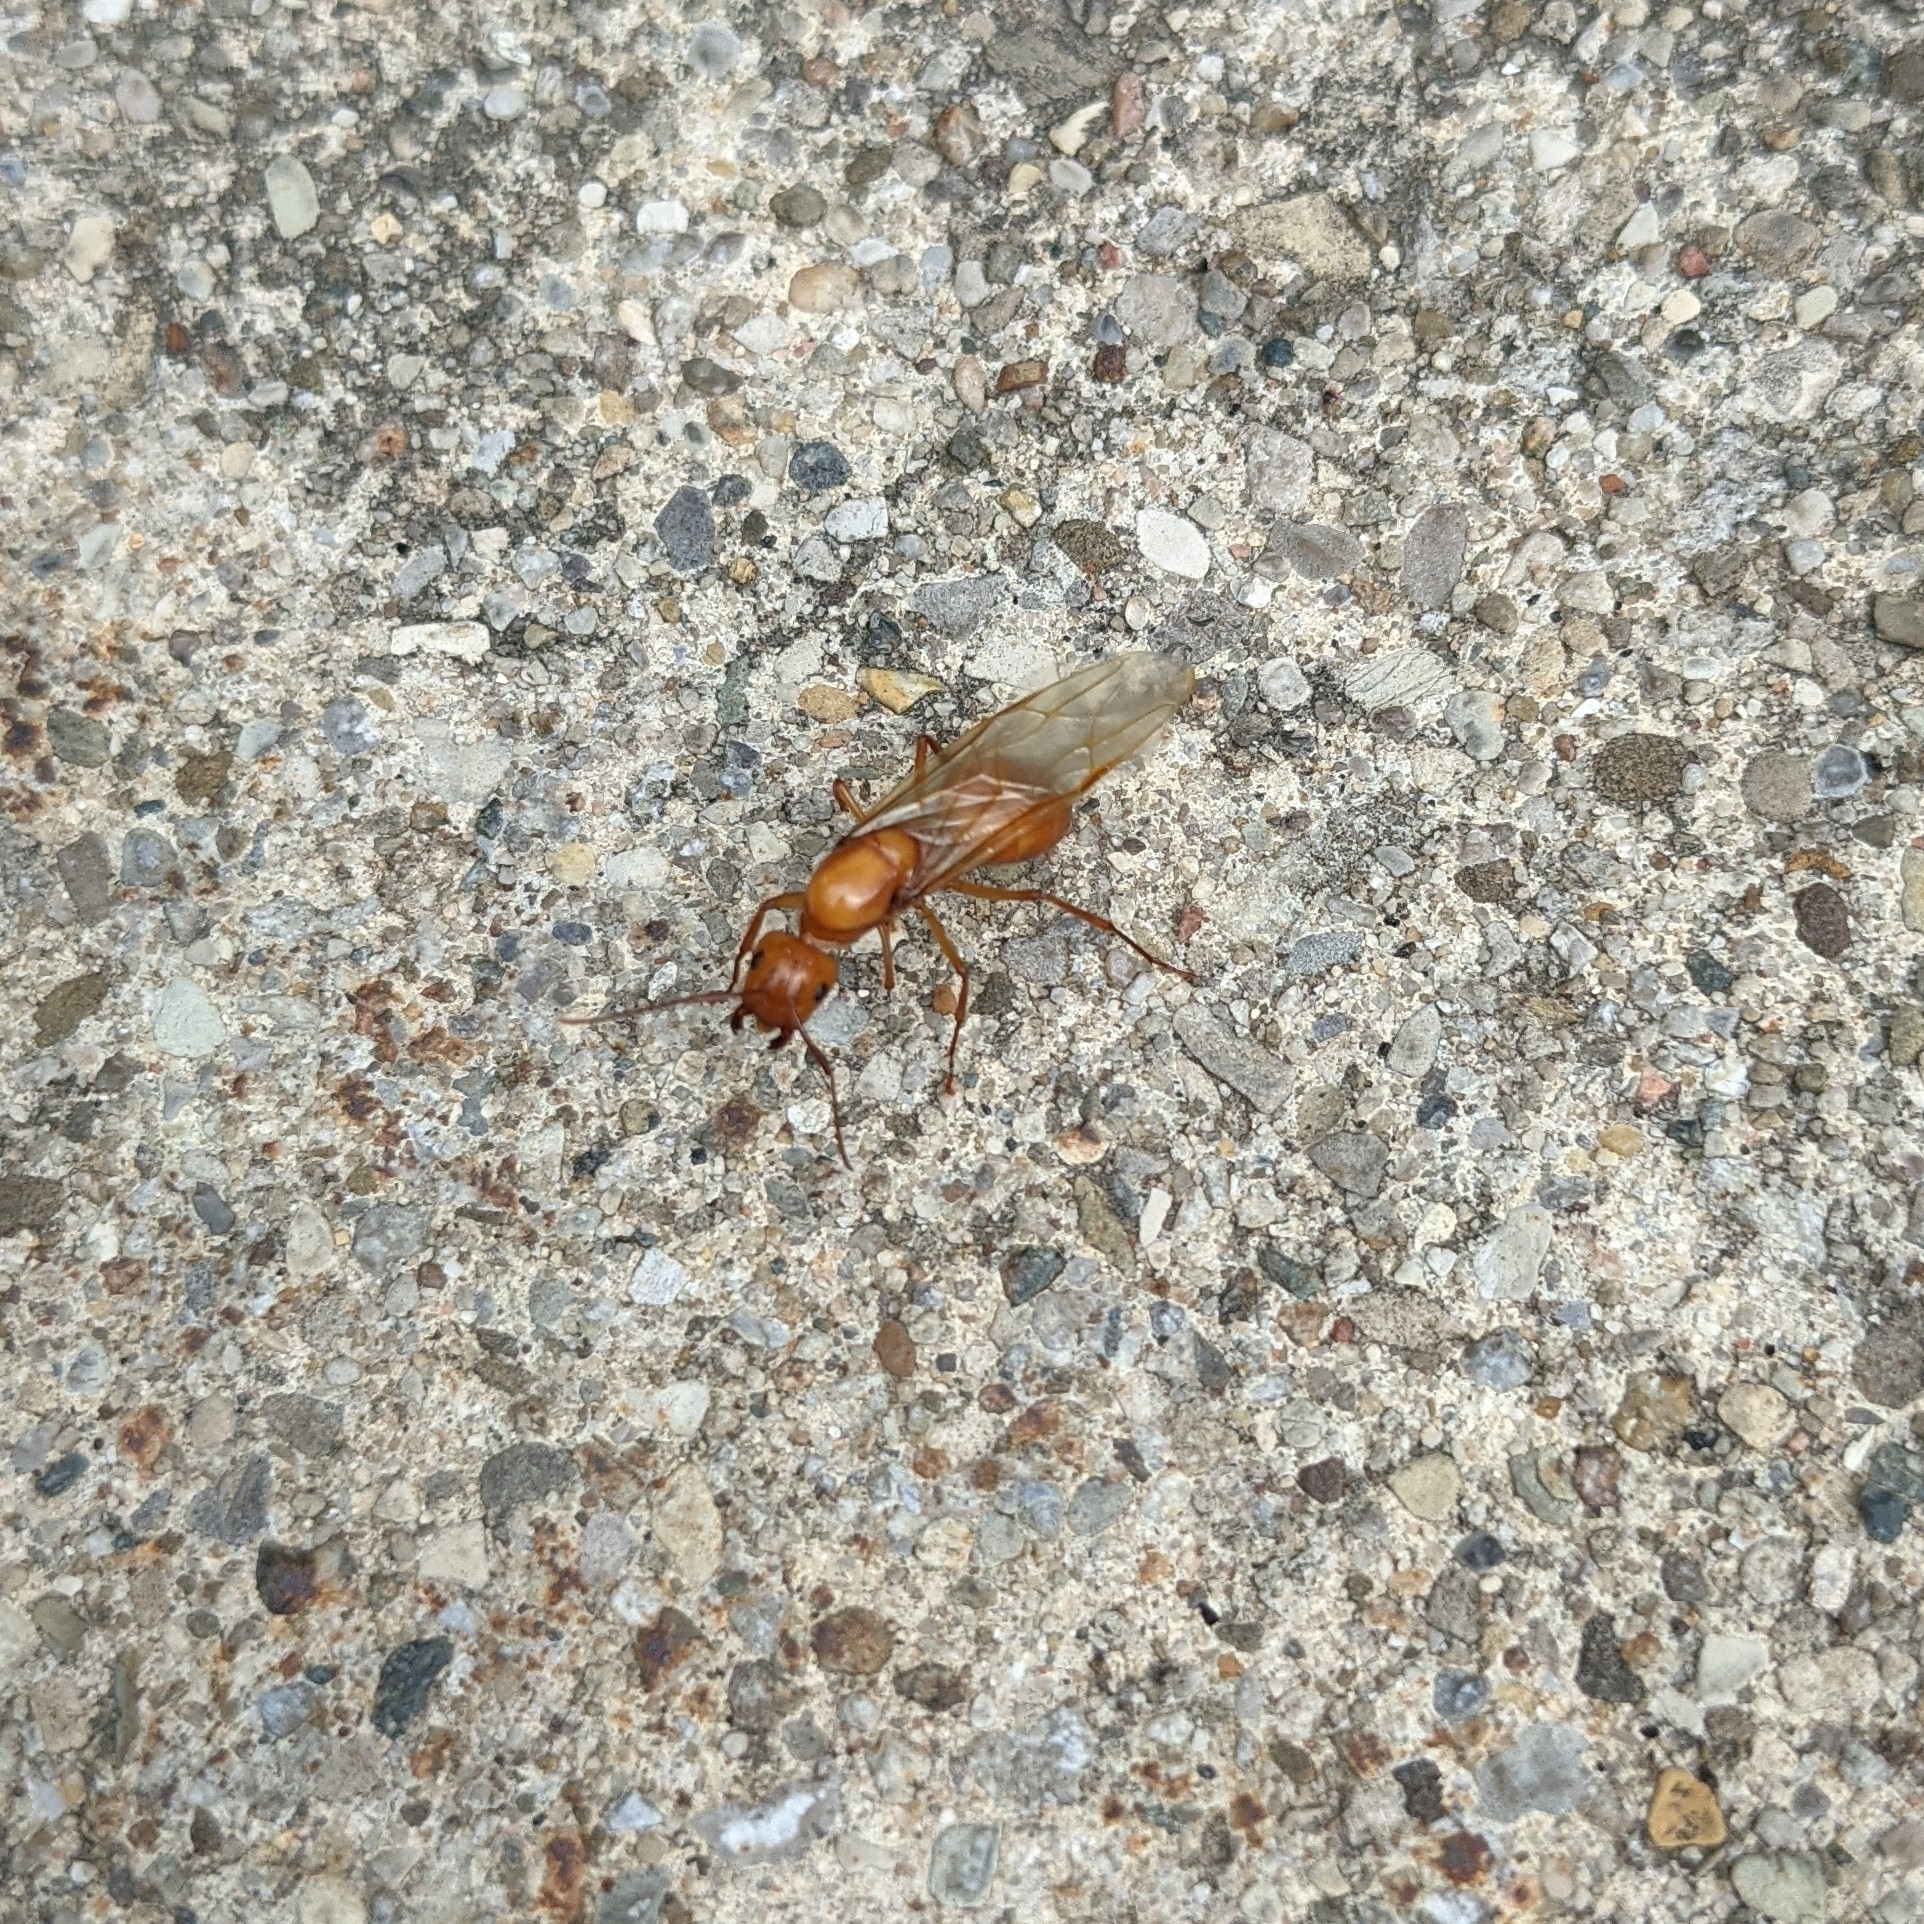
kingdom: Animalia
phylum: Arthropoda
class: Insecta
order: Hymenoptera
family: Formicidae
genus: Camponotus
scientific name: Camponotus castaneus
